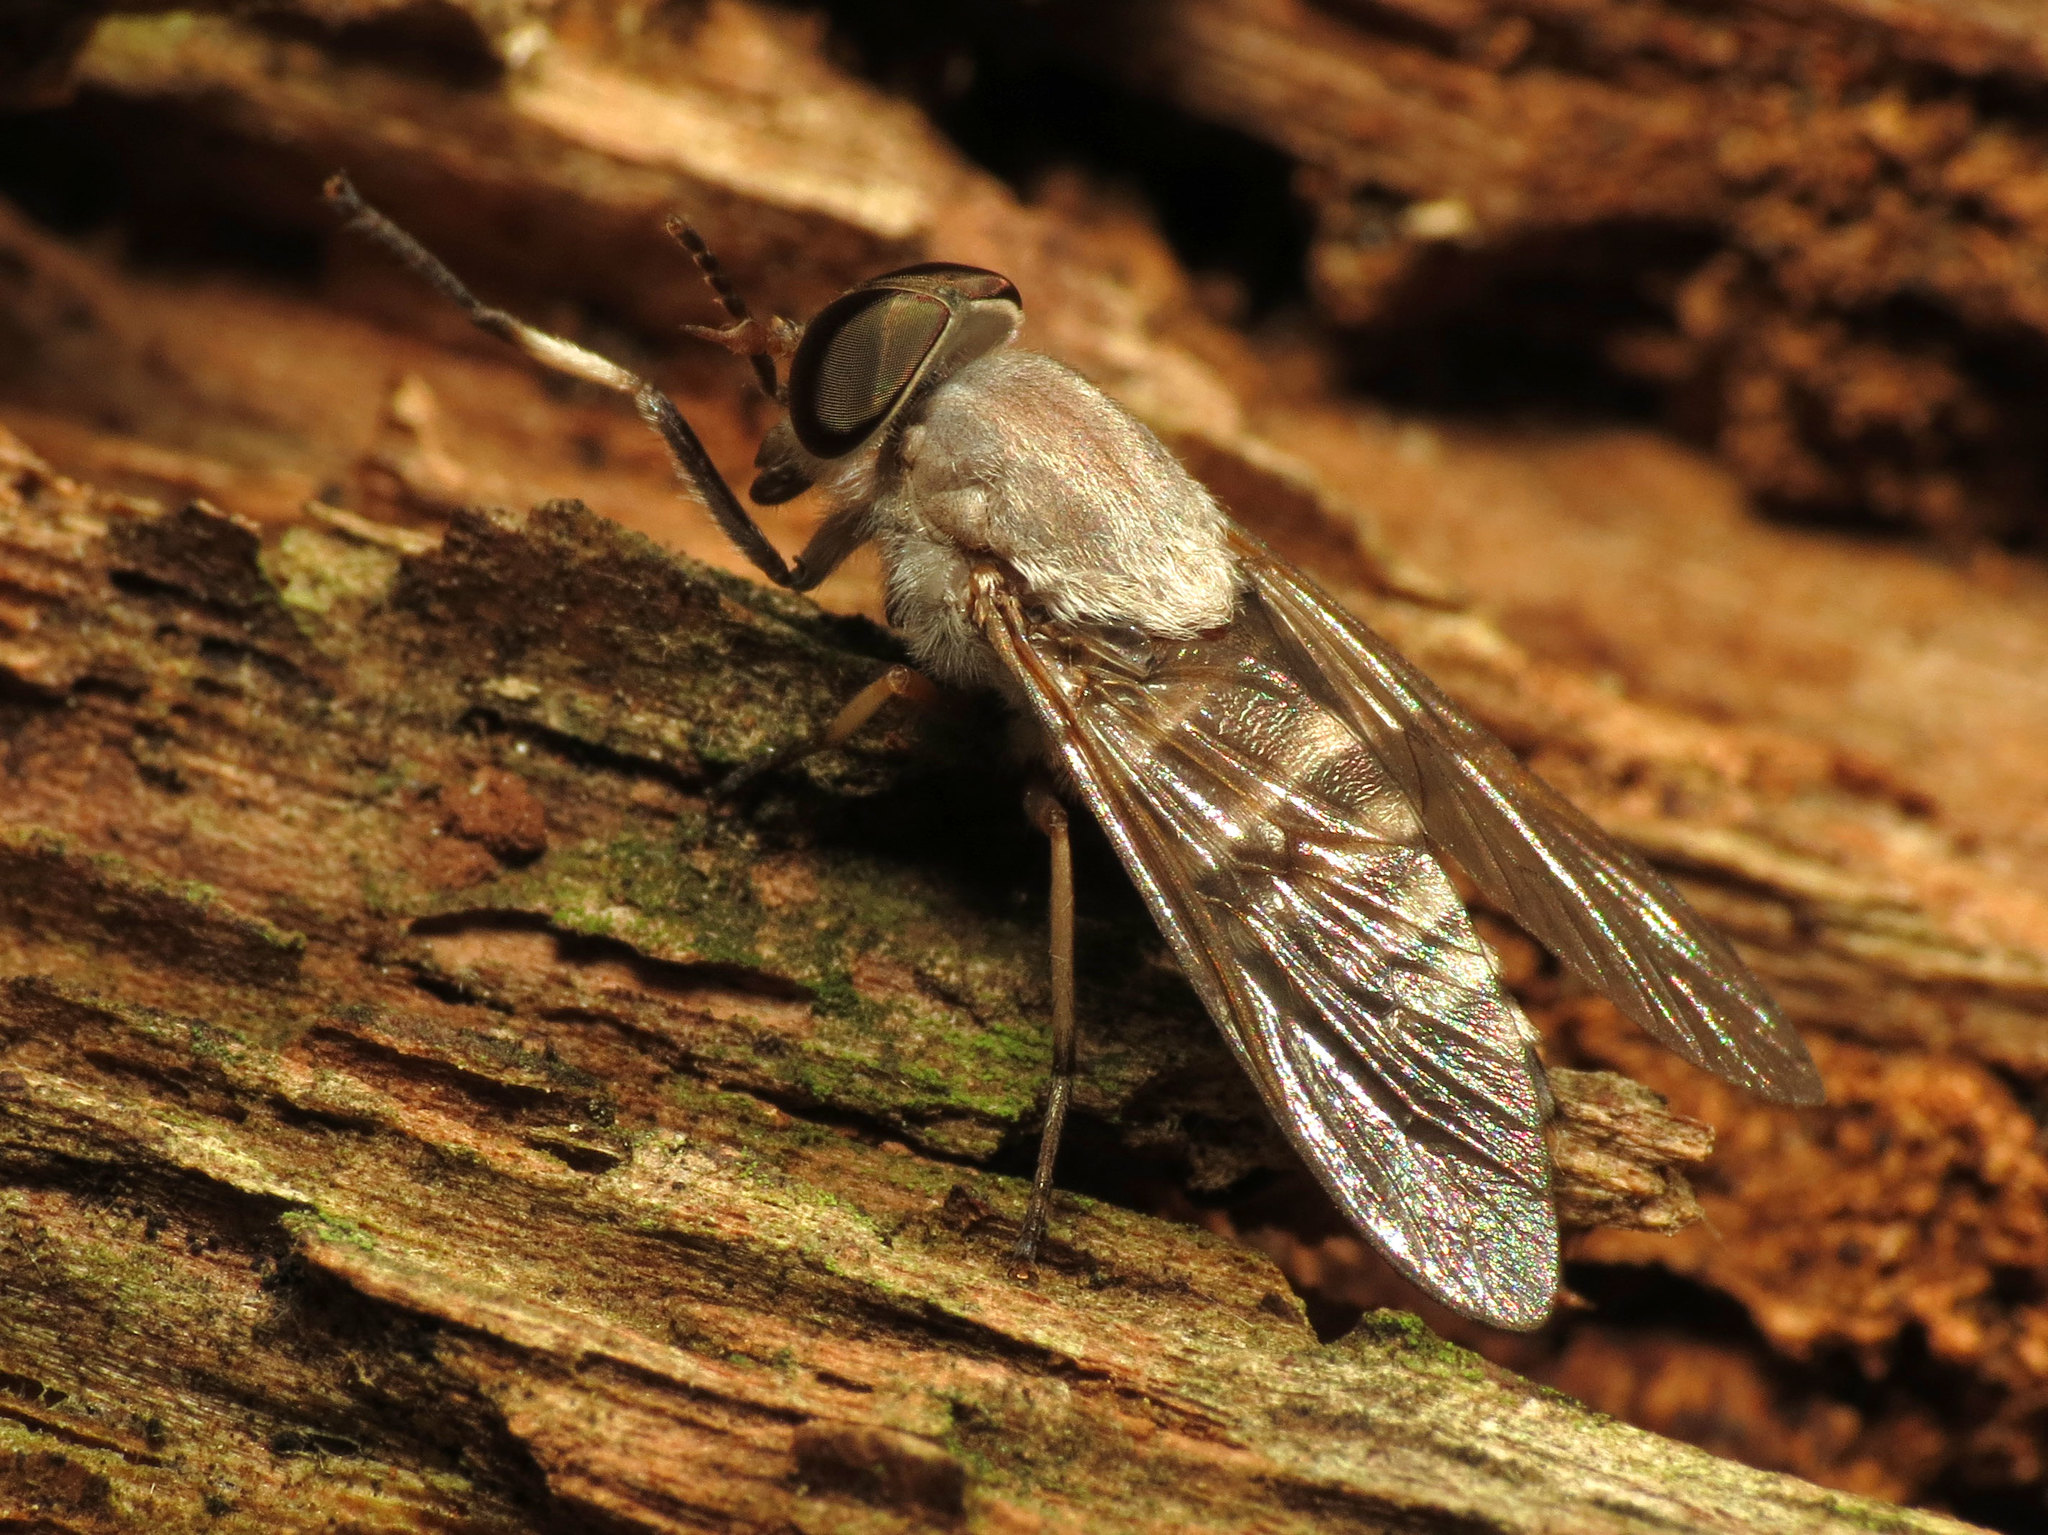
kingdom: Animalia
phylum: Arthropoda
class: Insecta
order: Diptera
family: Tabanidae
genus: Leucotabanus
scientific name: Leucotabanus annulatus
